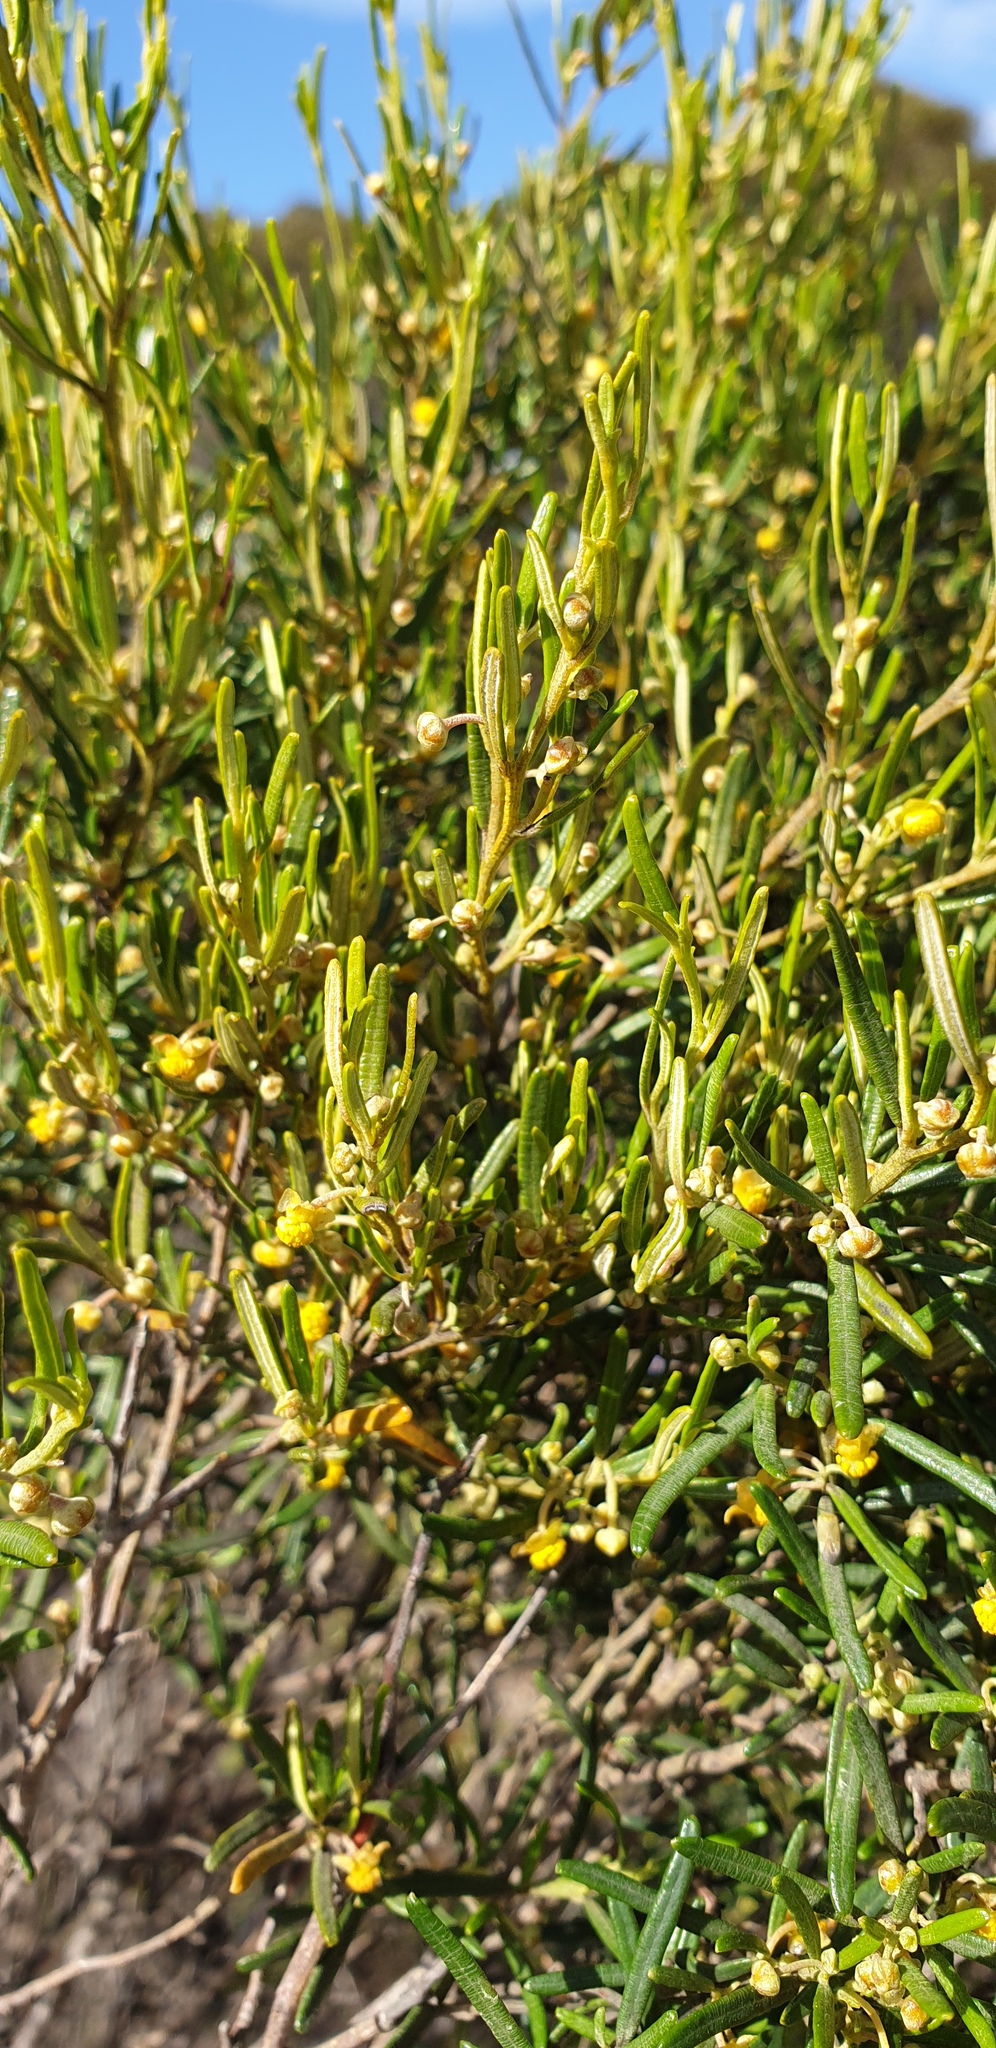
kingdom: Plantae
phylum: Tracheophyta
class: Magnoliopsida
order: Malpighiales
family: Euphorbiaceae
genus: Beyeria
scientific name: Beyeria lechenaultii
